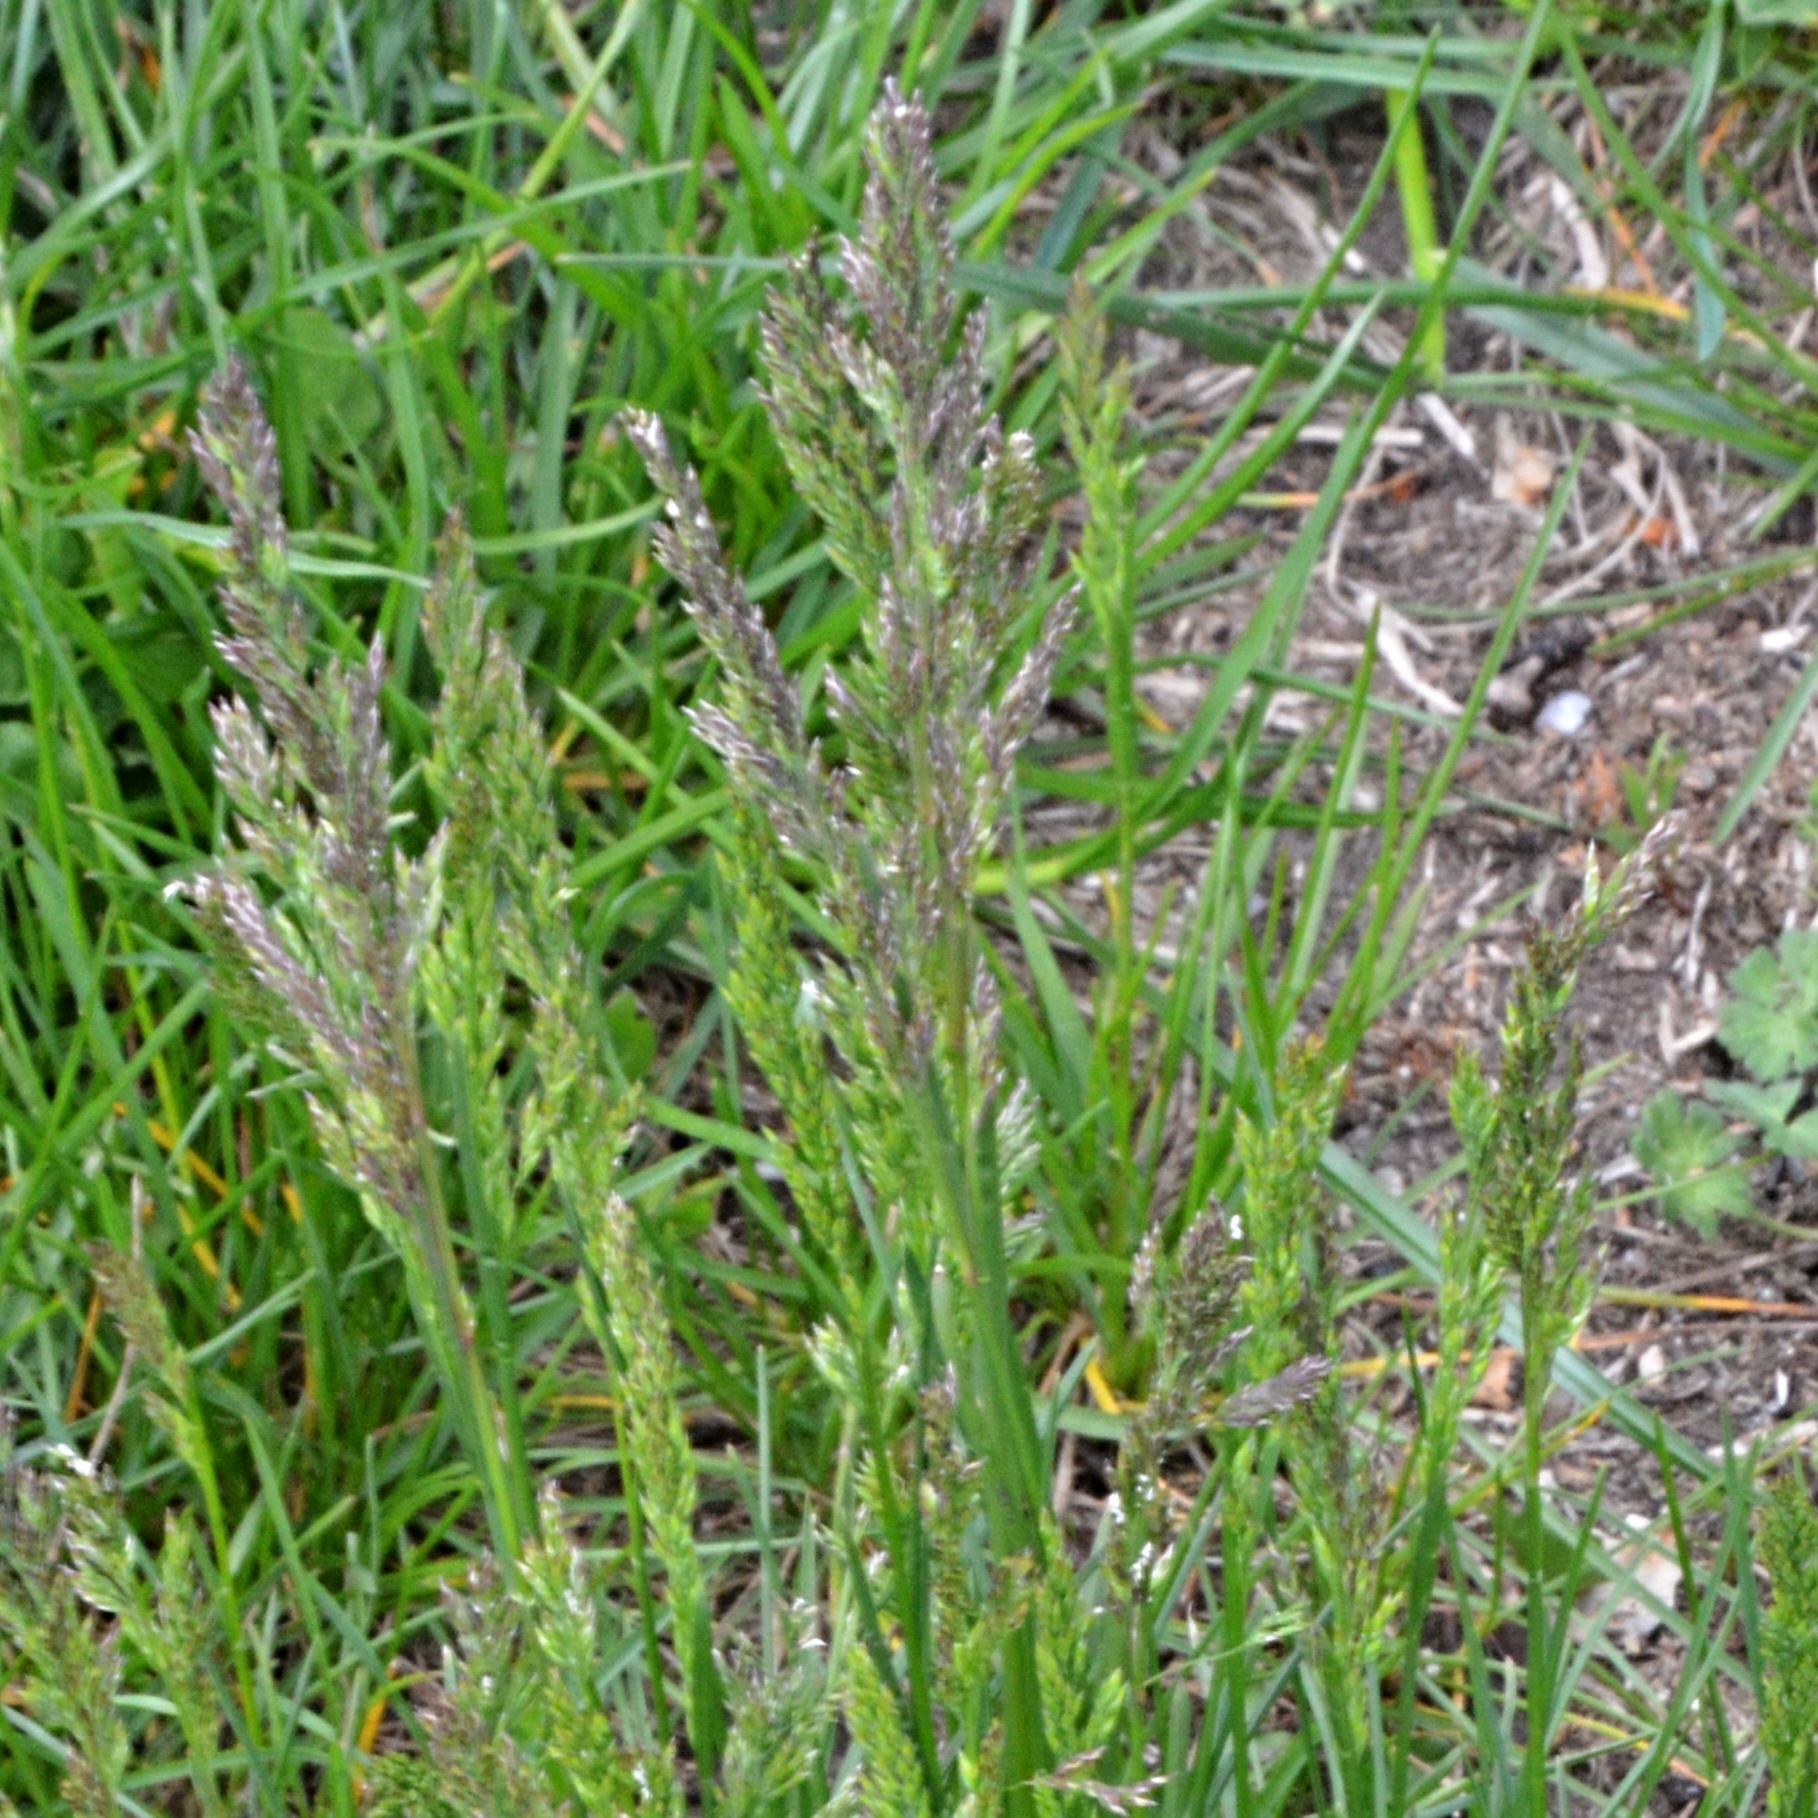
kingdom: Plantae
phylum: Tracheophyta
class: Liliopsida
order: Poales
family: Poaceae
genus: Poa
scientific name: Poa pratensis
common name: Kentucky bluegrass
